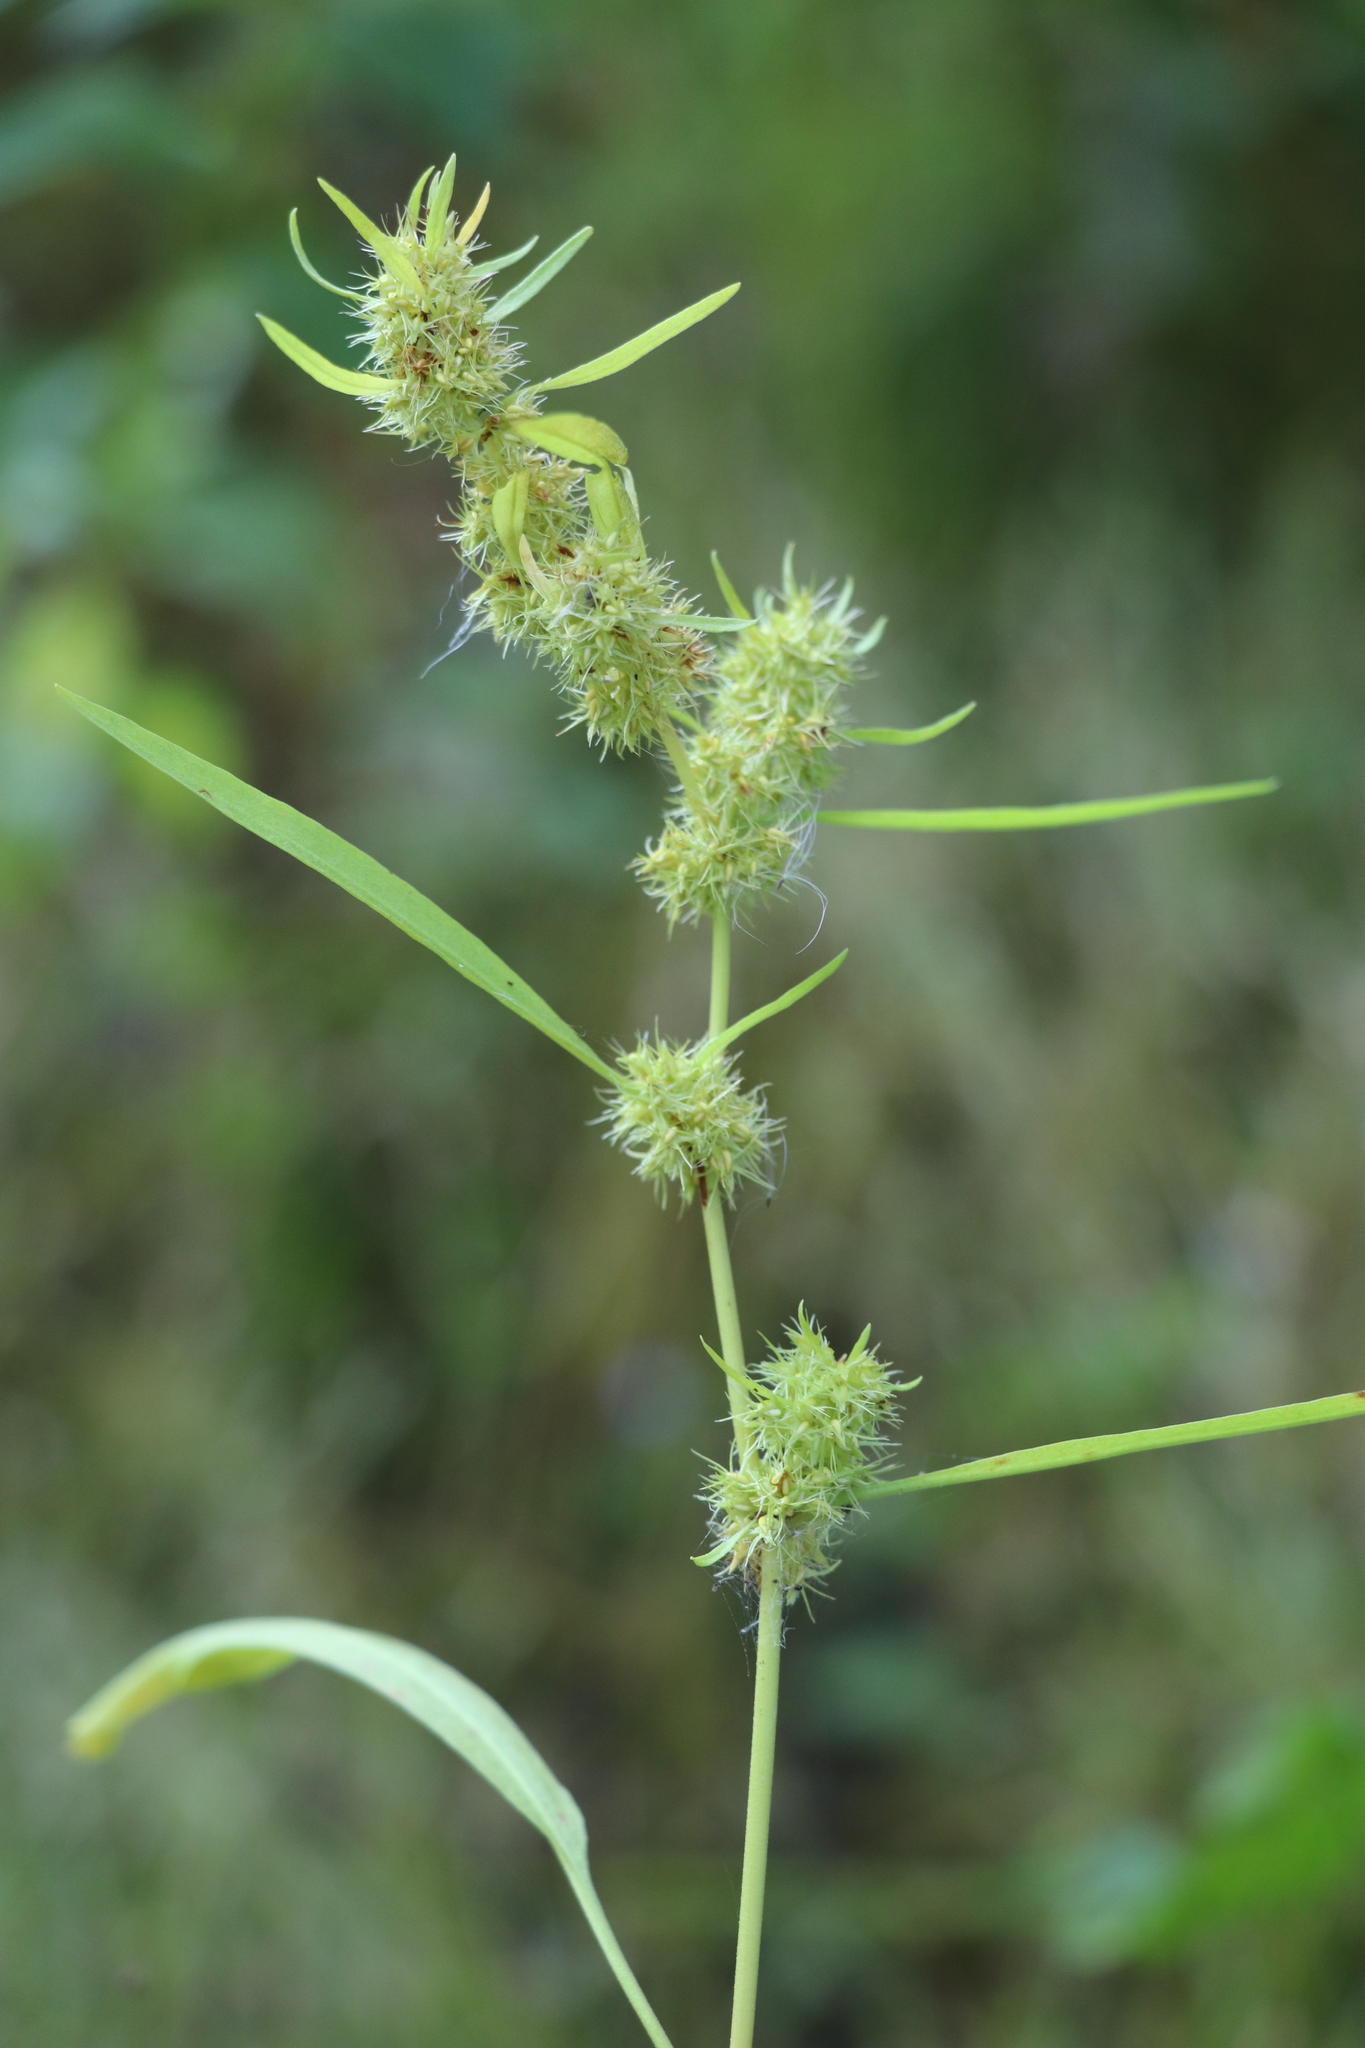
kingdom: Plantae
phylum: Tracheophyta
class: Magnoliopsida
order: Caryophyllales
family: Polygonaceae
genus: Rumex
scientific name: Rumex maritimus
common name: Golden dock
